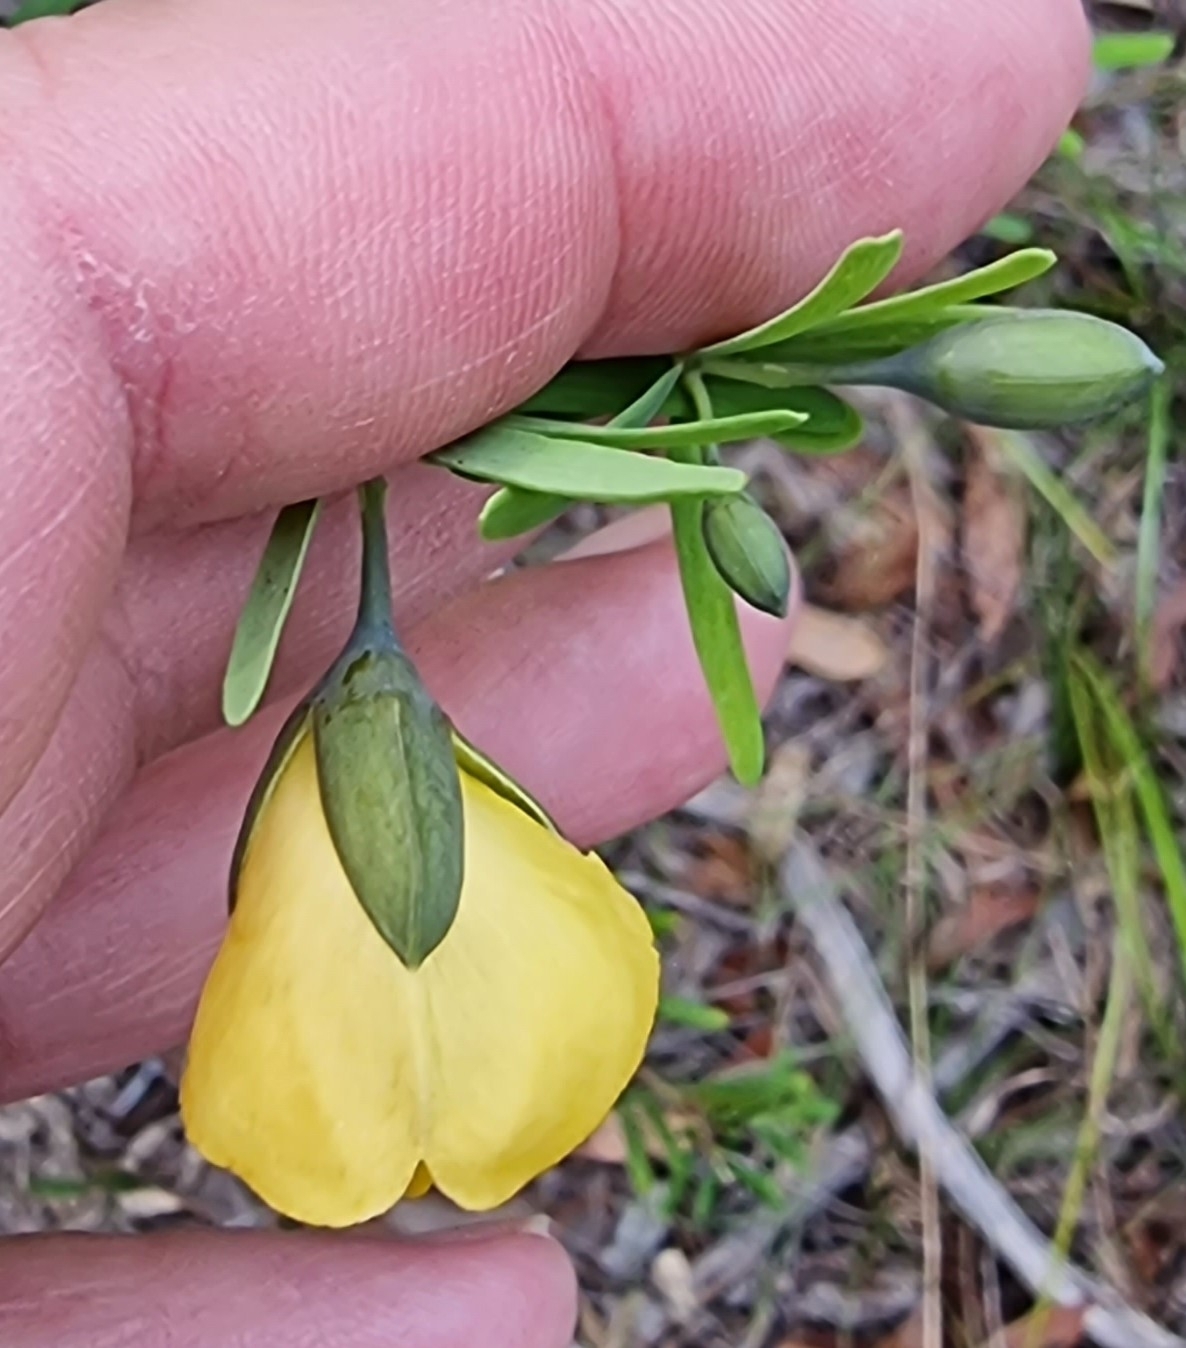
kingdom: Plantae
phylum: Tracheophyta
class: Magnoliopsida
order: Fabales
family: Fabaceae
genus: Gompholobium
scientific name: Gompholobium latifolium
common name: Broadleaf wedge-pea
